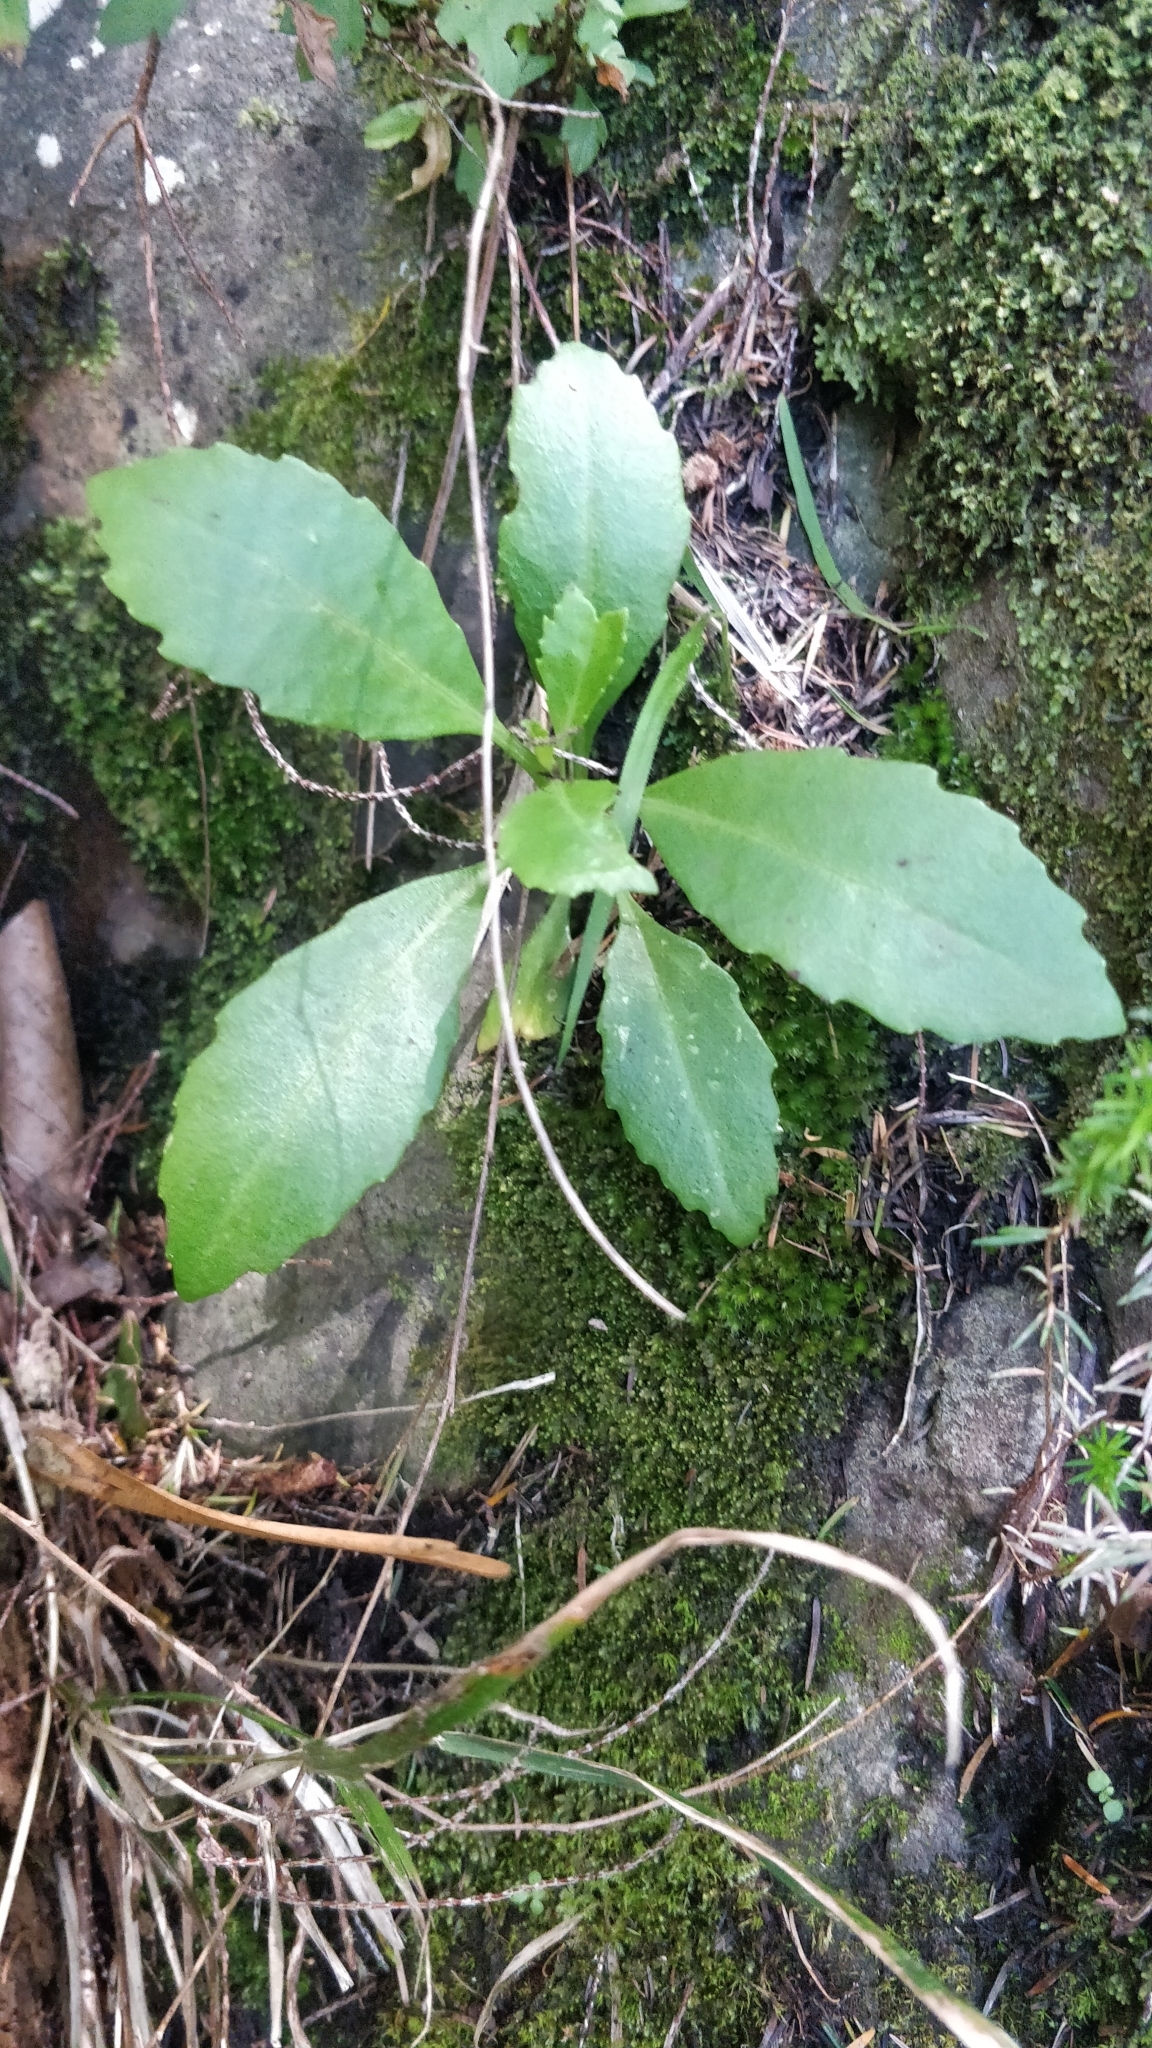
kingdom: Plantae
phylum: Tracheophyta
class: Magnoliopsida
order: Brassicales
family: Brassicaceae
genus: Sinapidendron
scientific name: Sinapidendron frutescens
